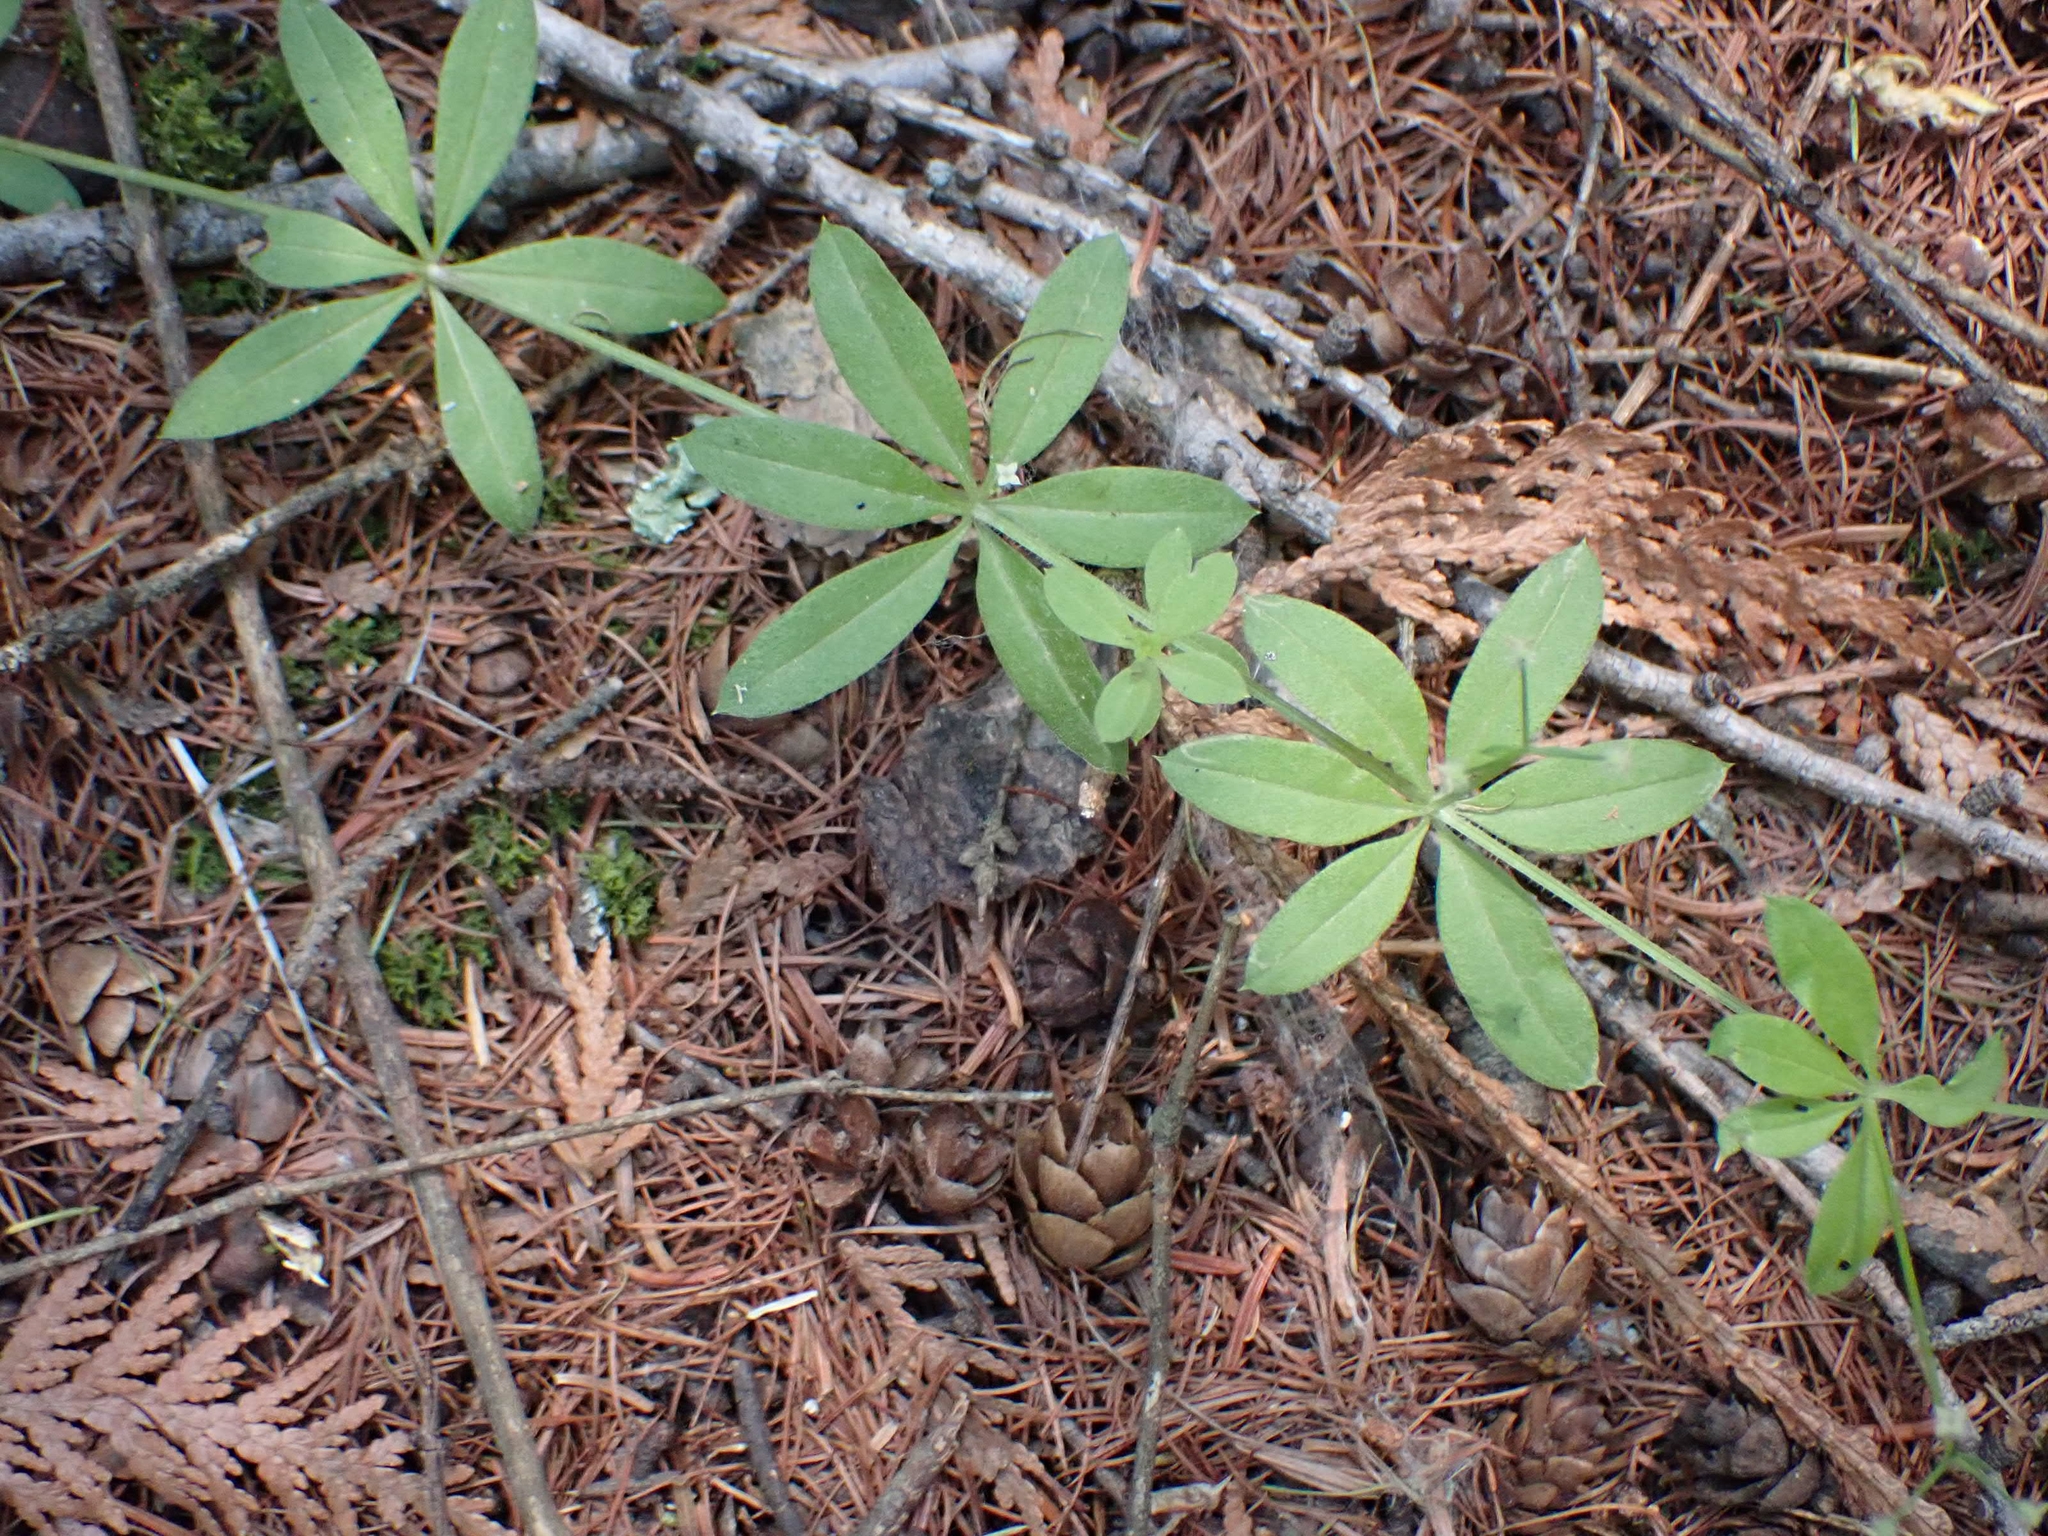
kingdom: Plantae
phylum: Tracheophyta
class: Magnoliopsida
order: Gentianales
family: Rubiaceae
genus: Galium
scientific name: Galium triflorum
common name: Fragrant bedstraw
